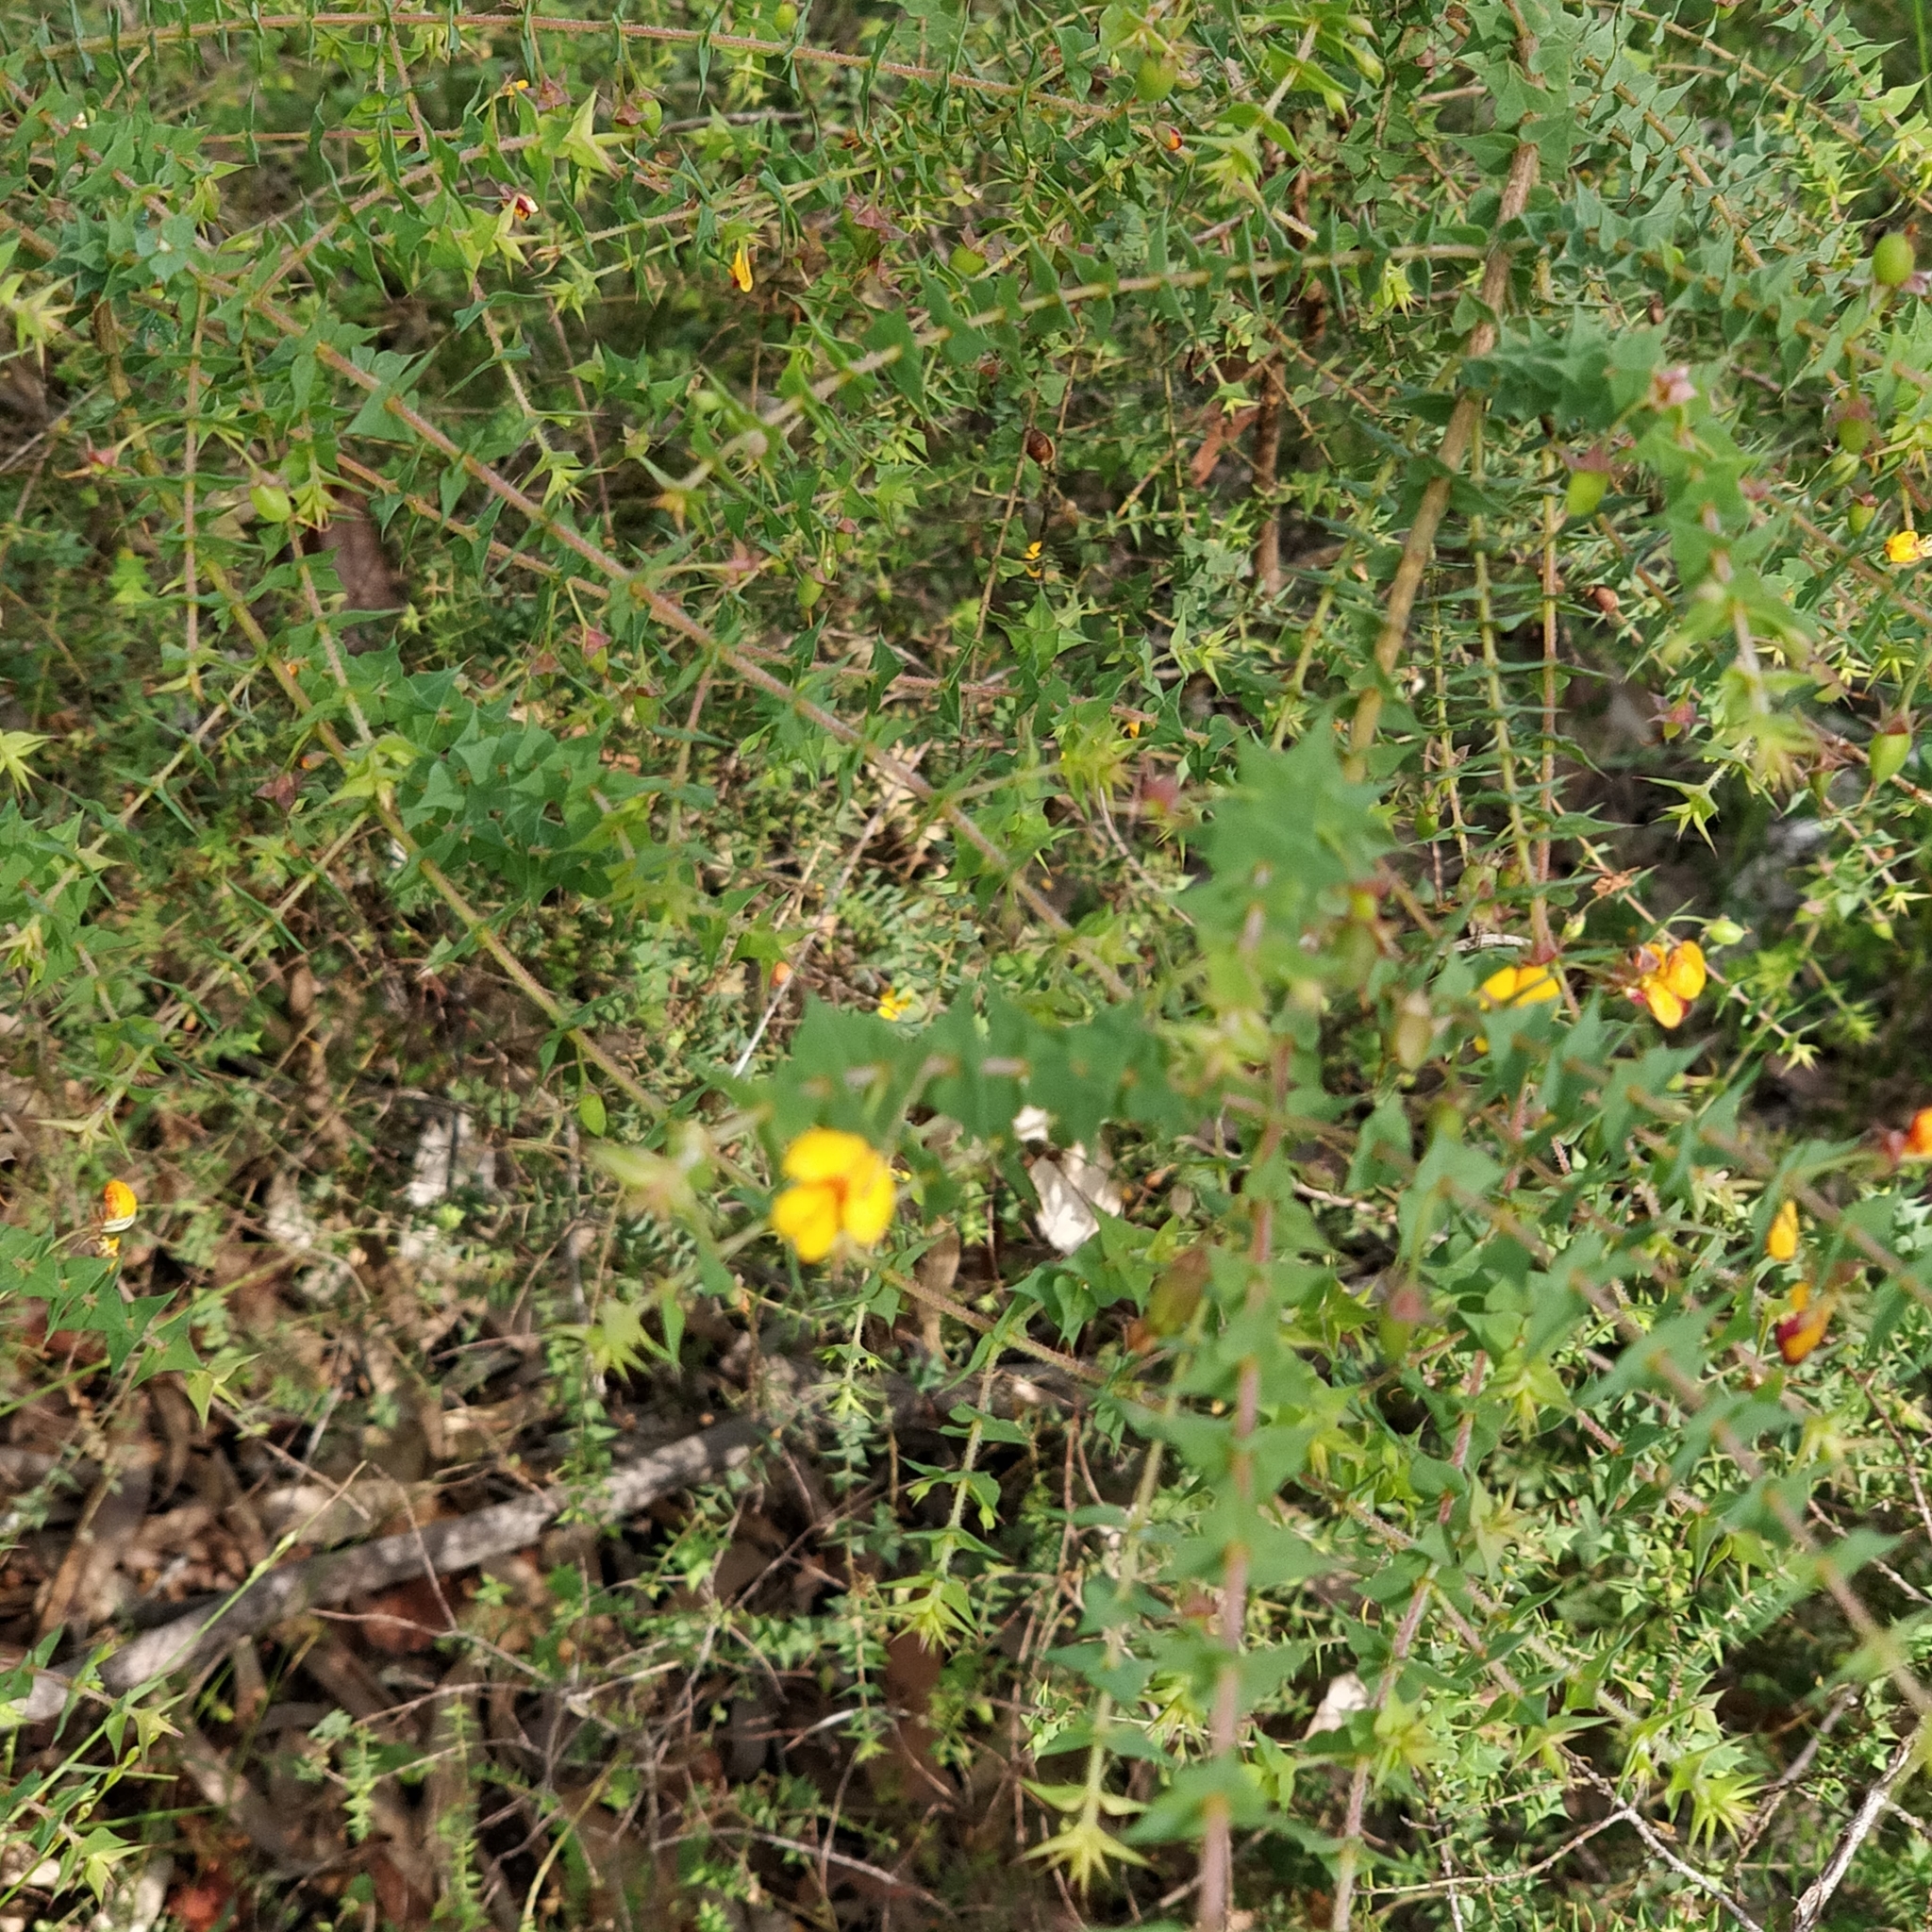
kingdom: Plantae
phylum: Tracheophyta
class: Magnoliopsida
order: Fabales
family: Fabaceae
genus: Pultenaea
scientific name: Pultenaea spinosa
